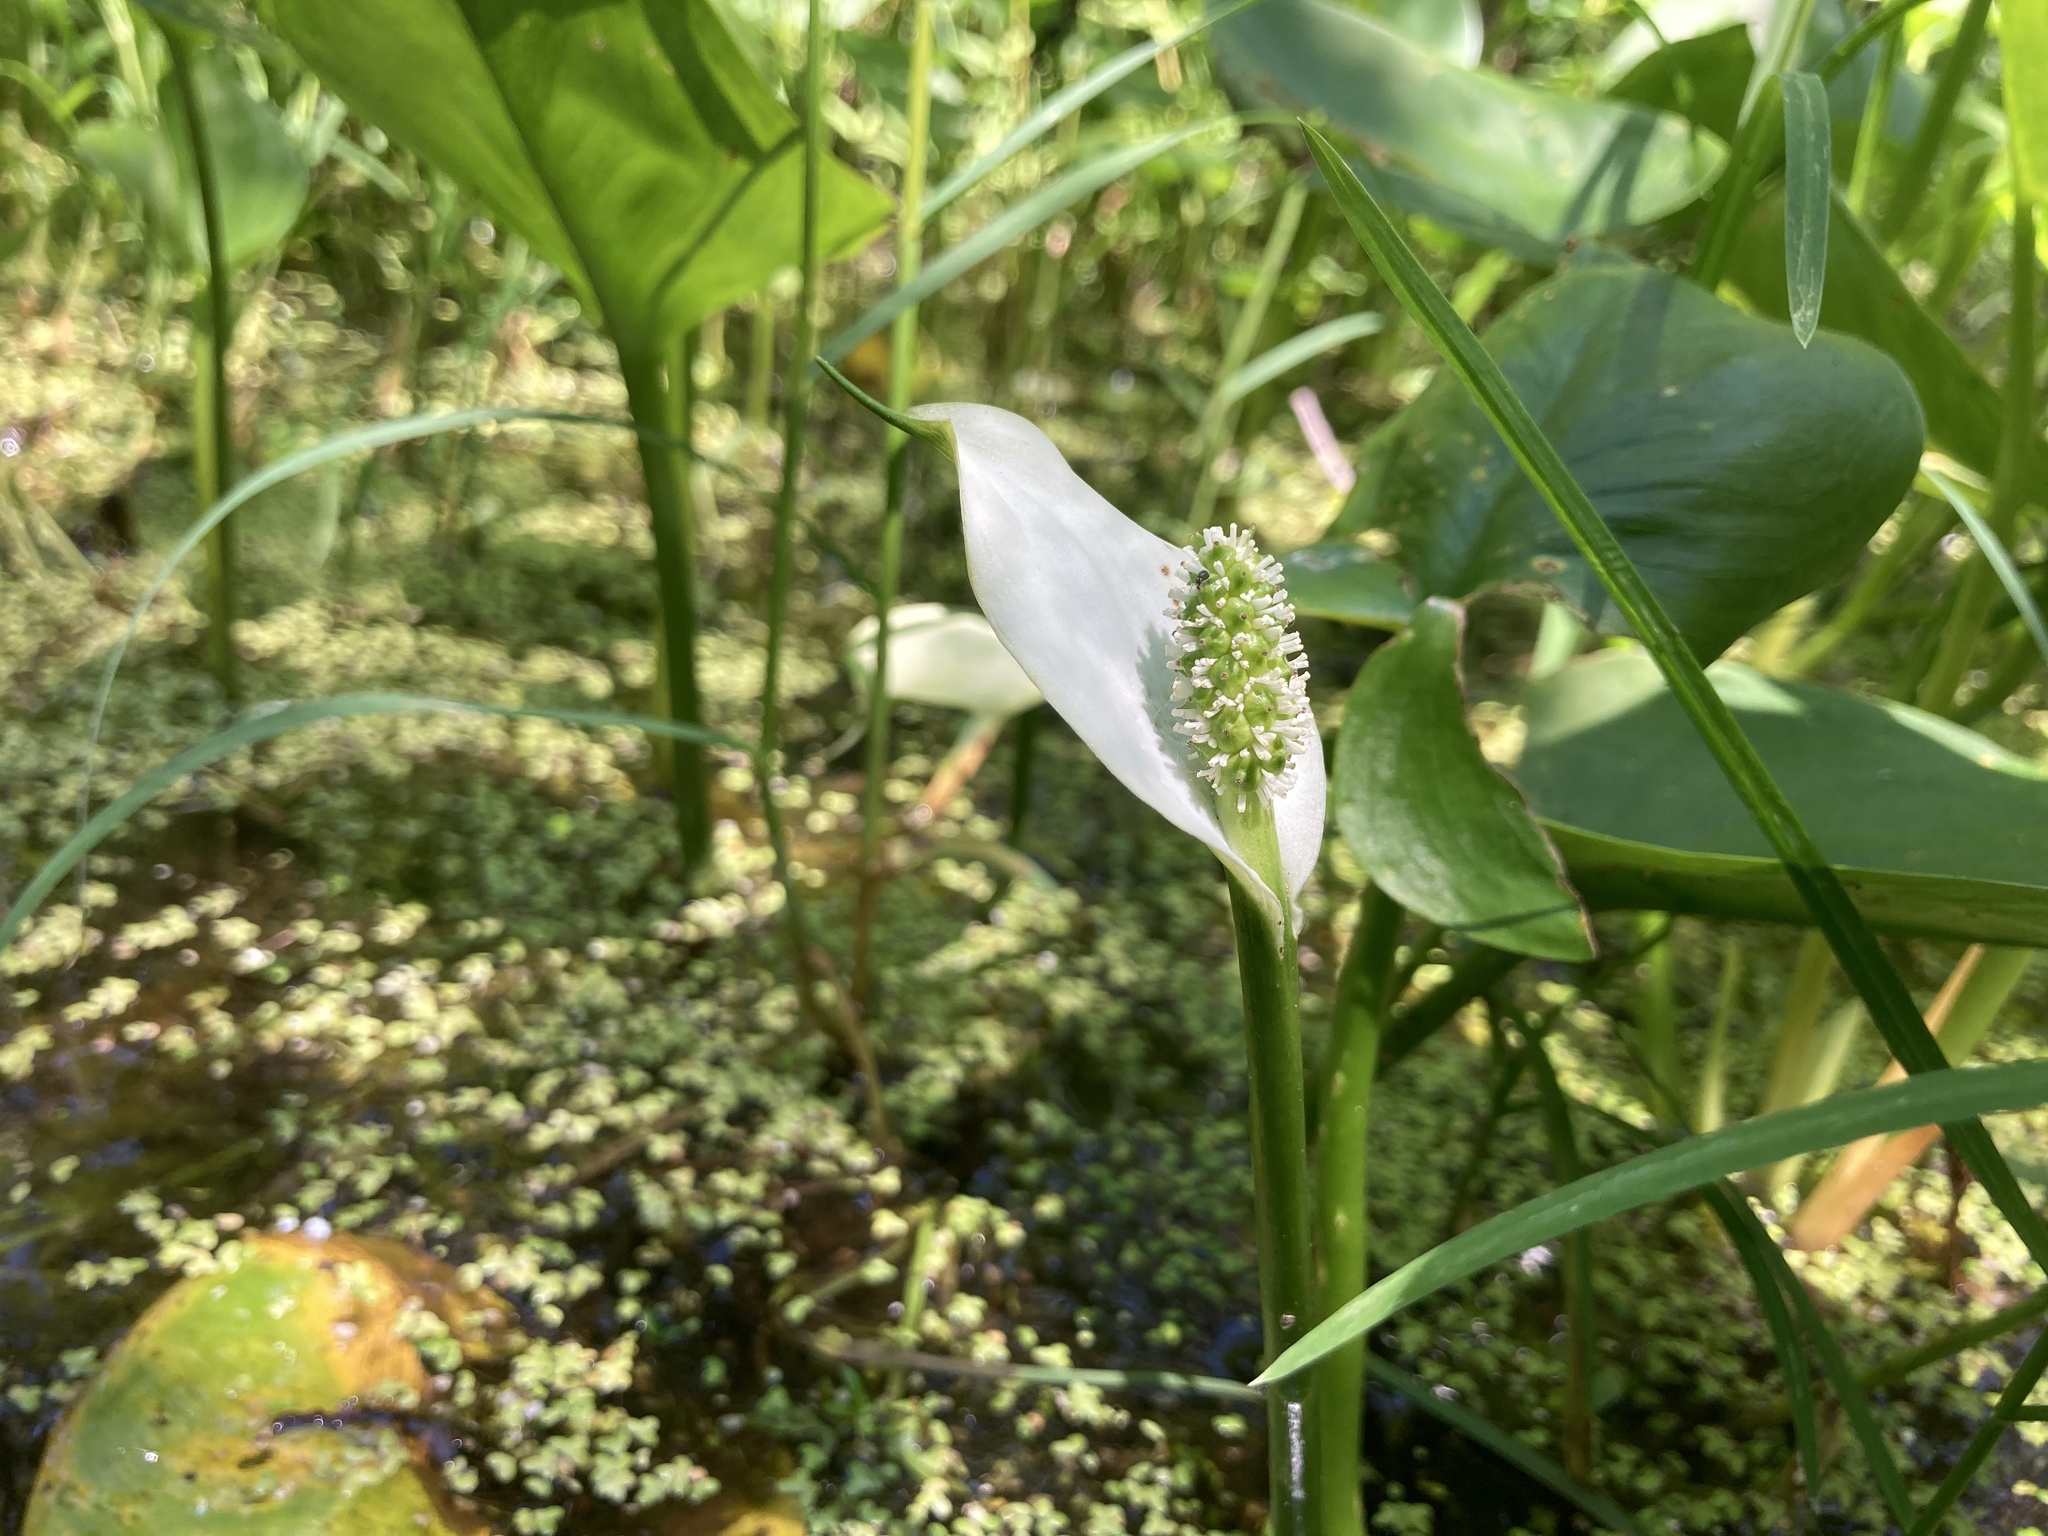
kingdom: Plantae
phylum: Tracheophyta
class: Liliopsida
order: Alismatales
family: Araceae
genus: Calla
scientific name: Calla palustris
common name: Bog arum
